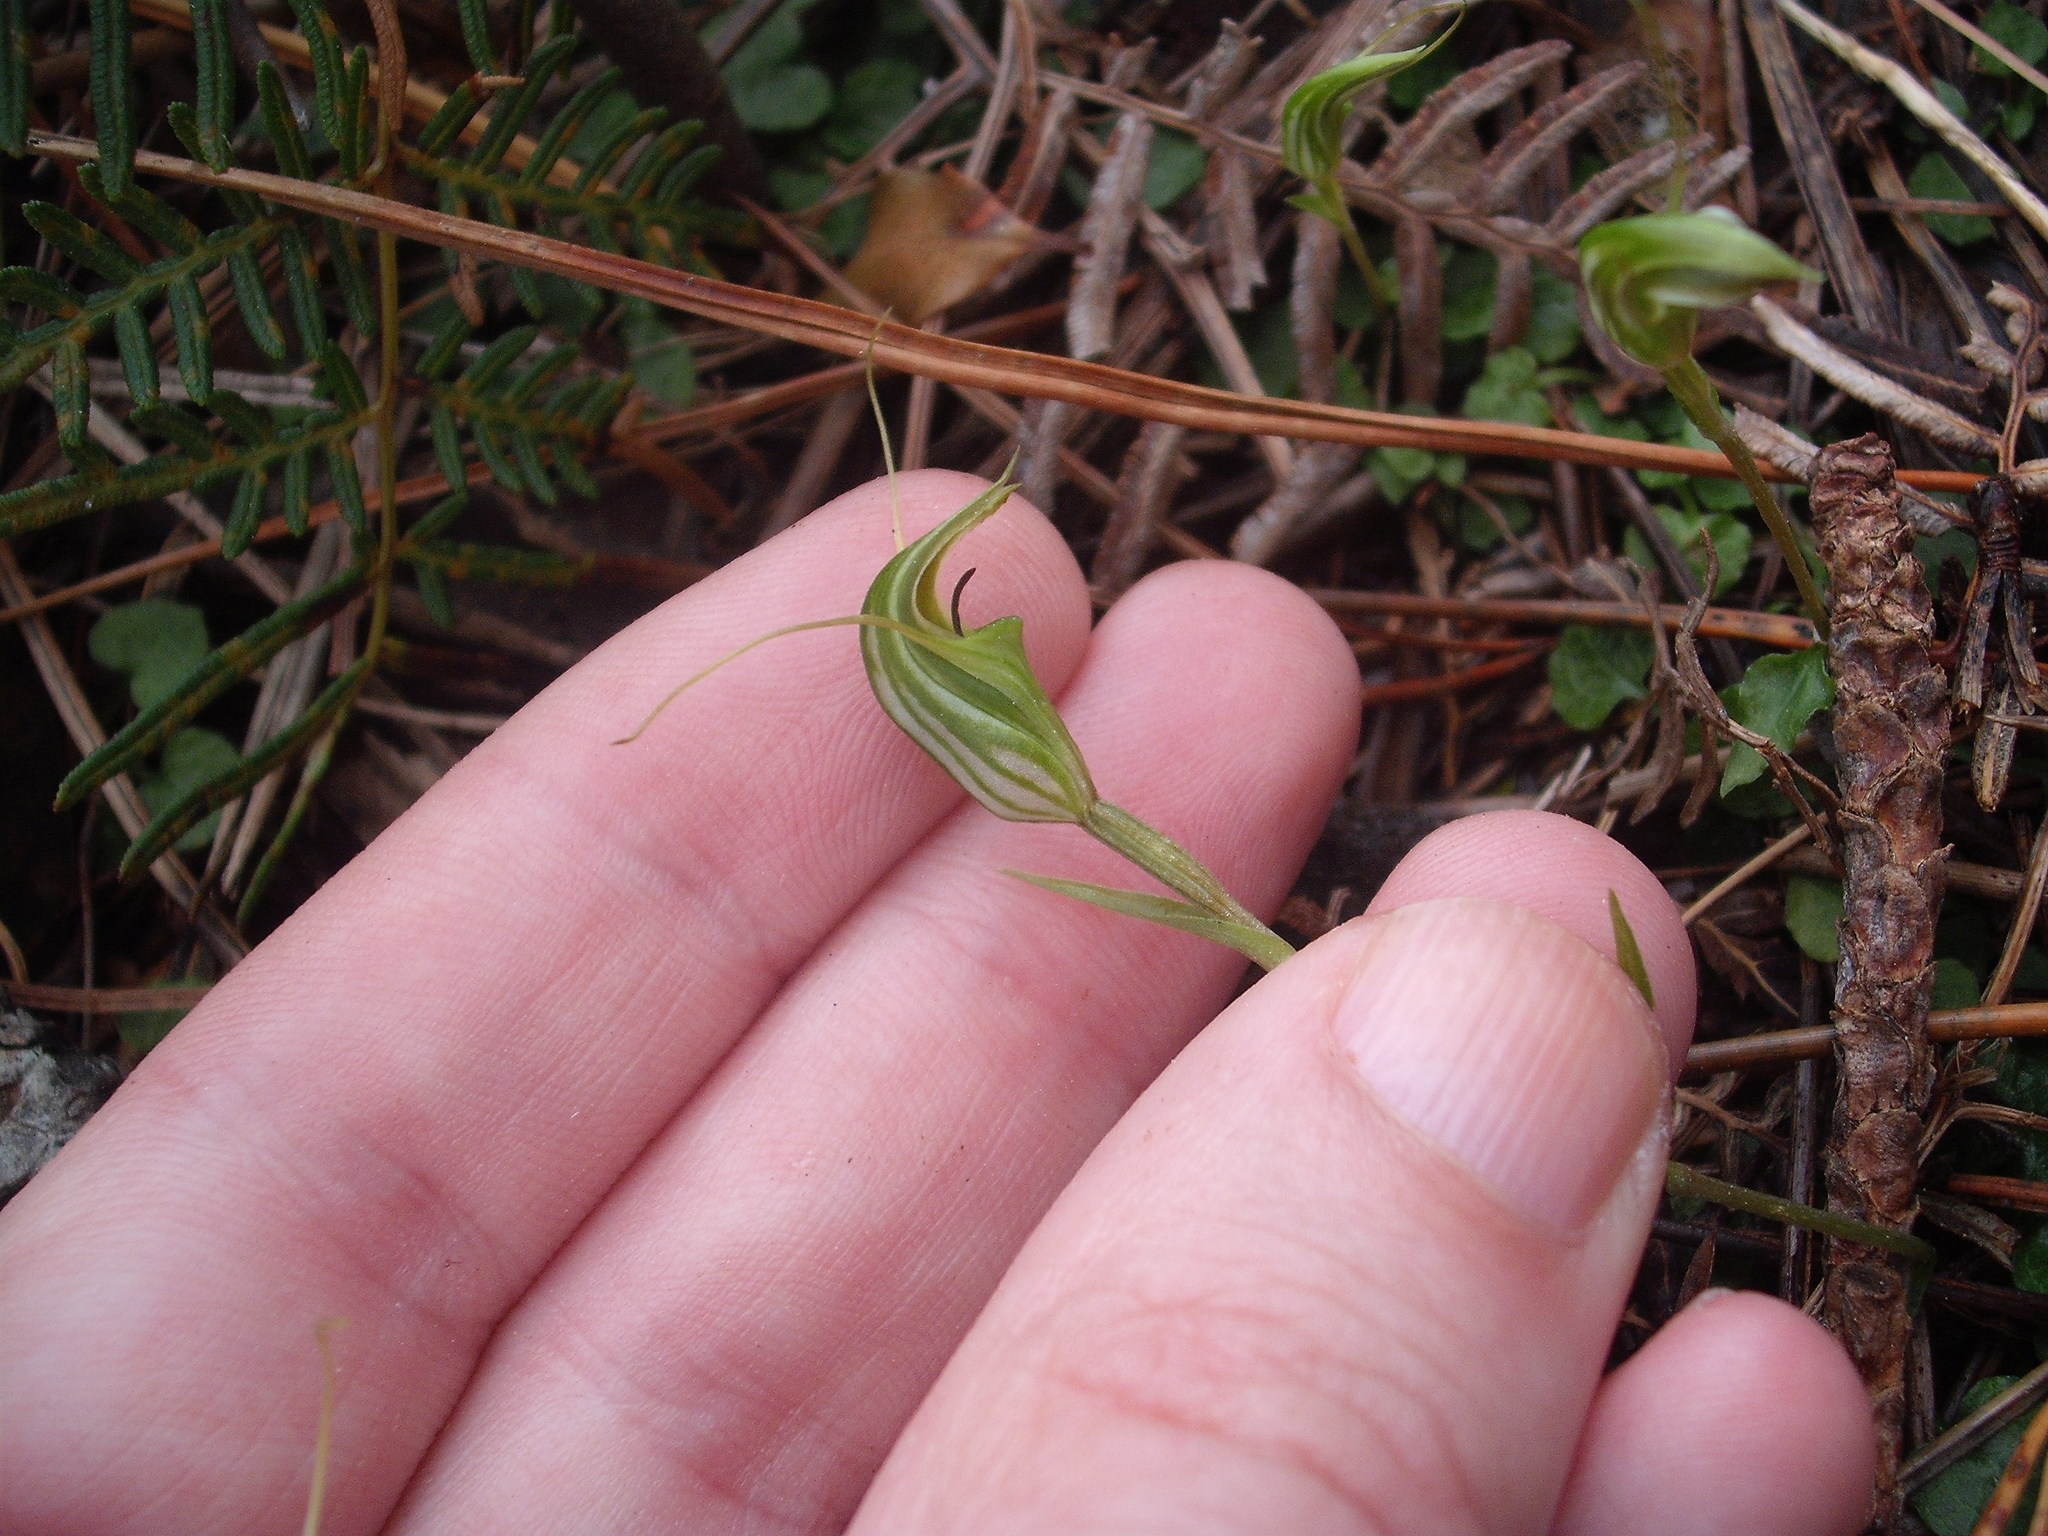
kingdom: Plantae
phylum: Tracheophyta
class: Liliopsida
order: Asparagales
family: Orchidaceae
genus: Pterostylis
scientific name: Pterostylis trullifolia
